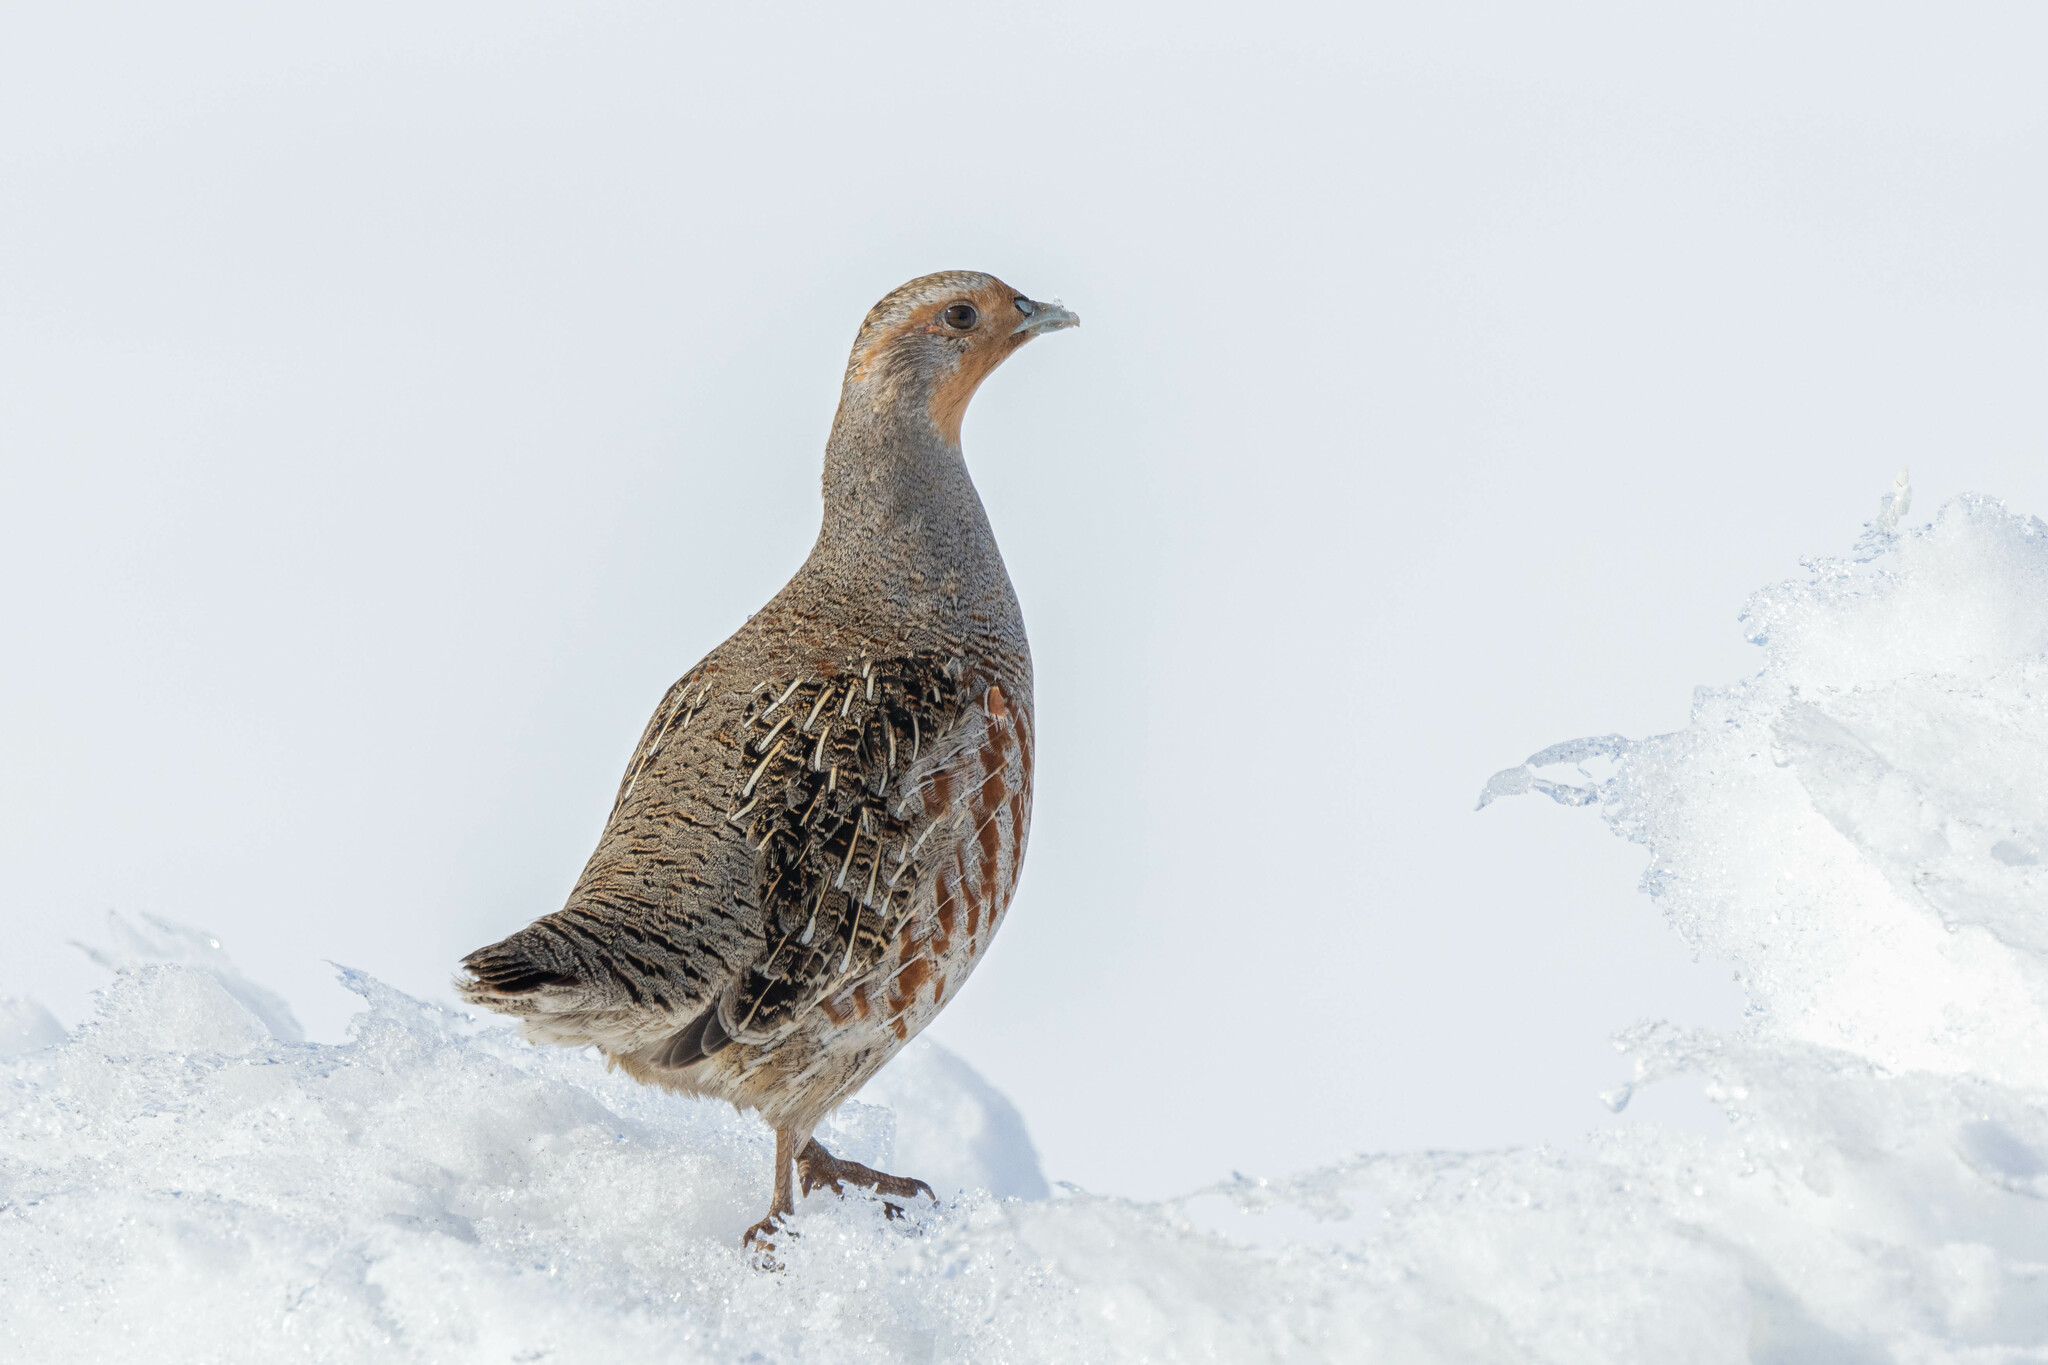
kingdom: Animalia
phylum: Chordata
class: Aves
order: Galliformes
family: Phasianidae
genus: Perdix
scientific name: Perdix perdix
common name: Grey partridge
